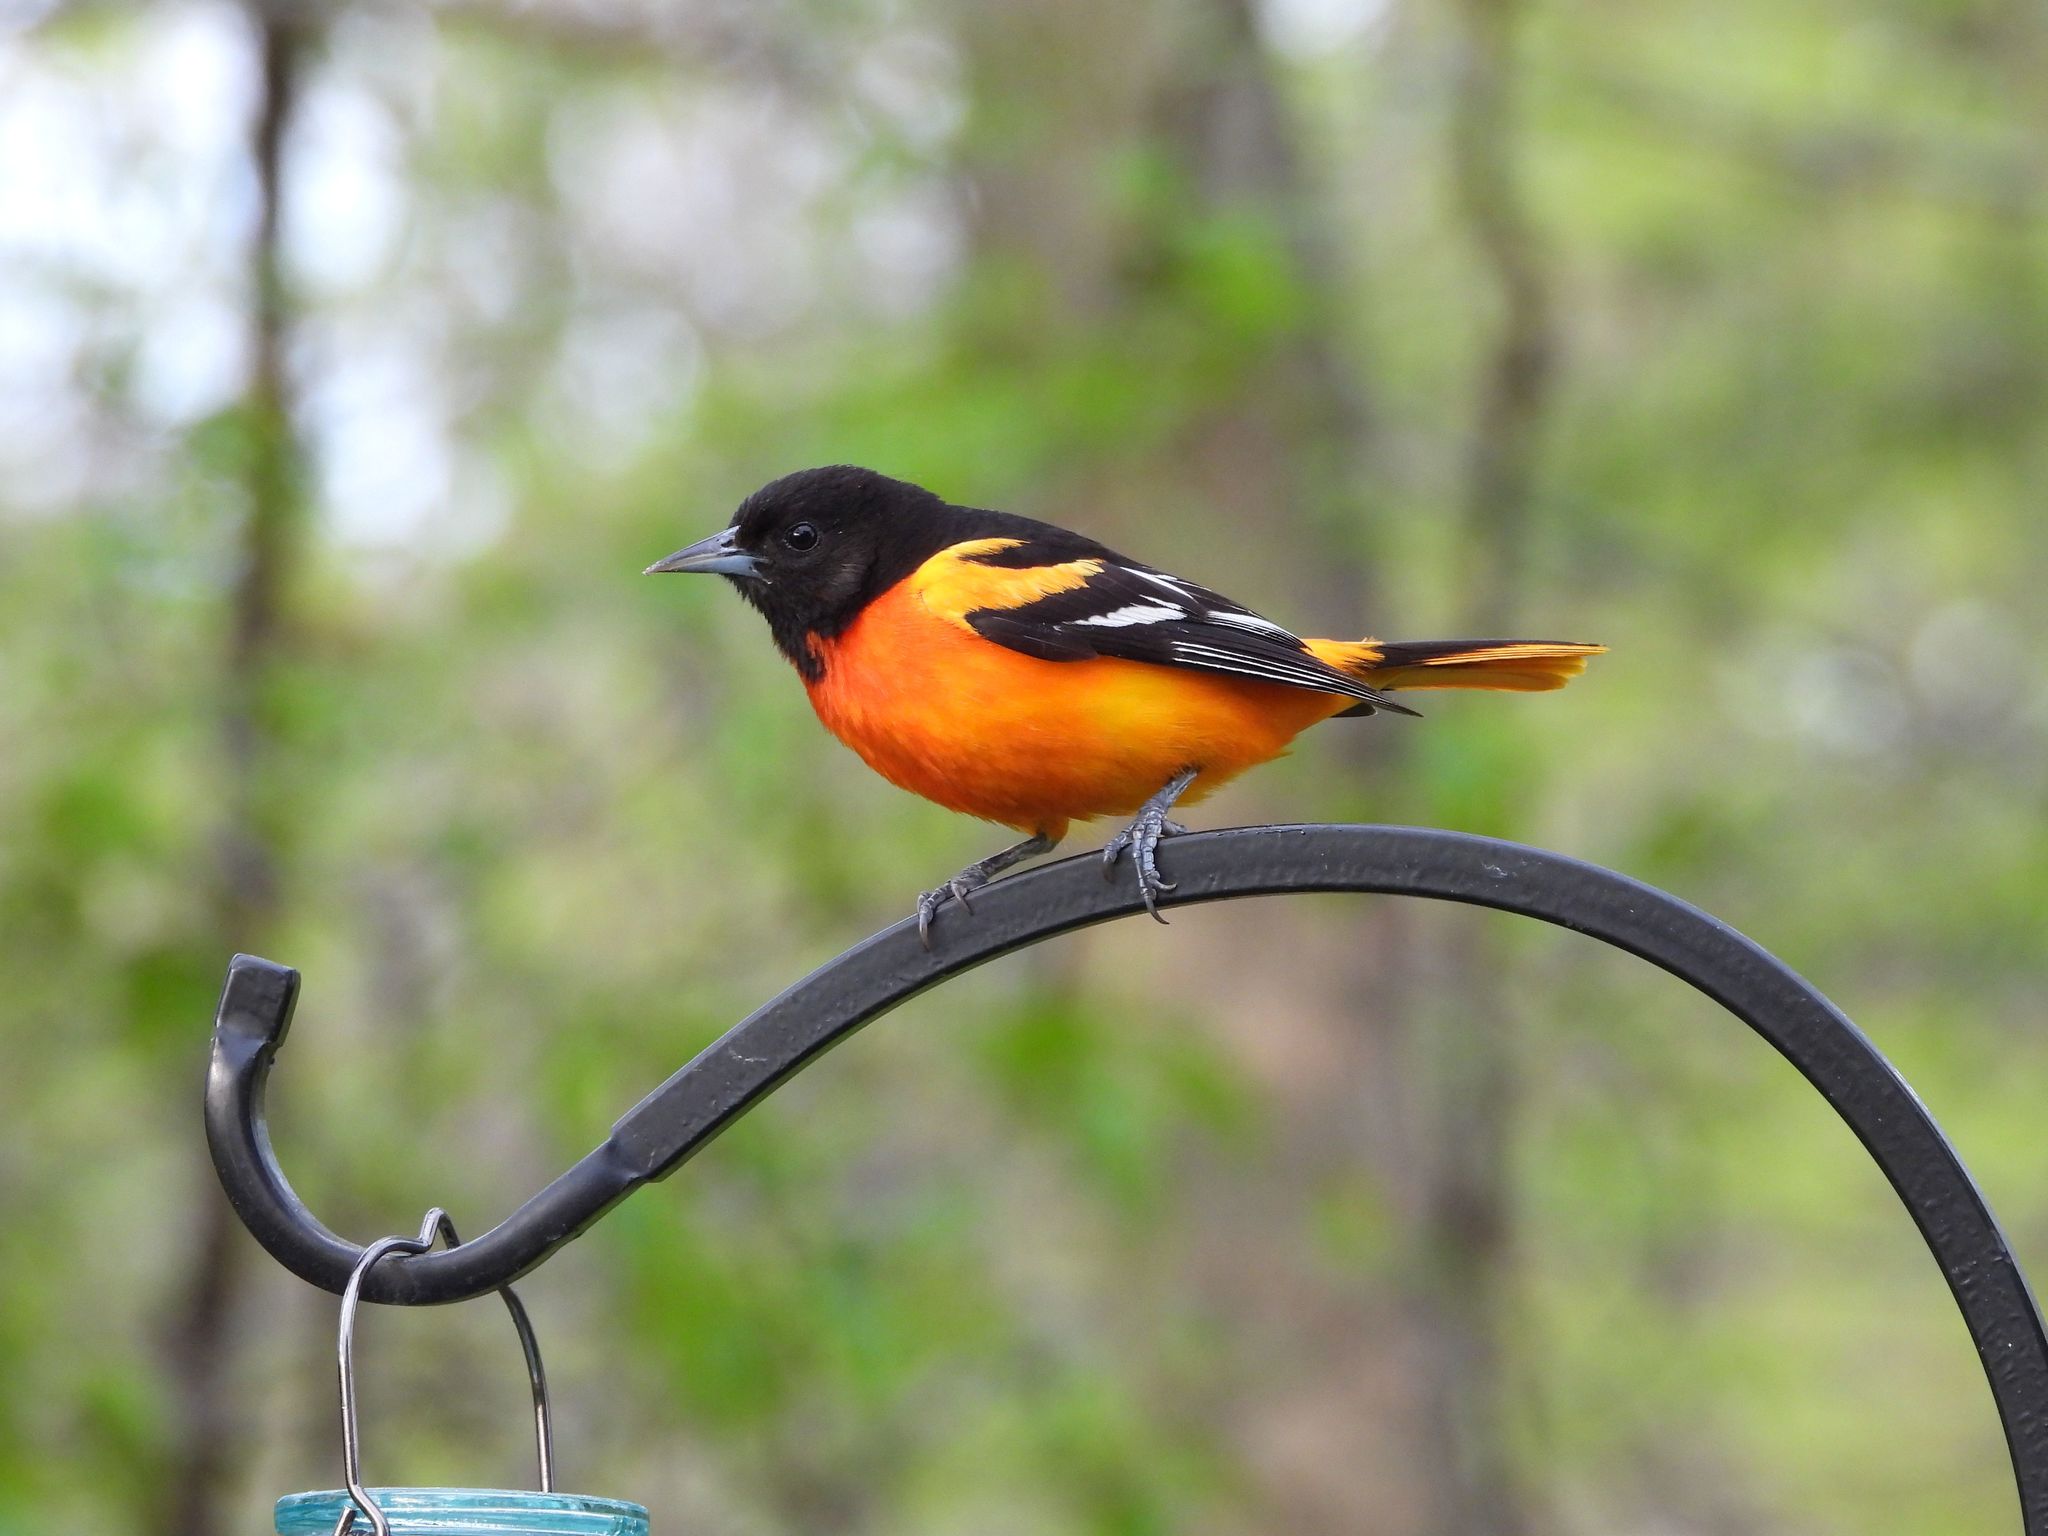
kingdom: Animalia
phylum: Chordata
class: Aves
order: Passeriformes
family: Icteridae
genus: Icterus
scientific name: Icterus galbula
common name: Baltimore oriole
